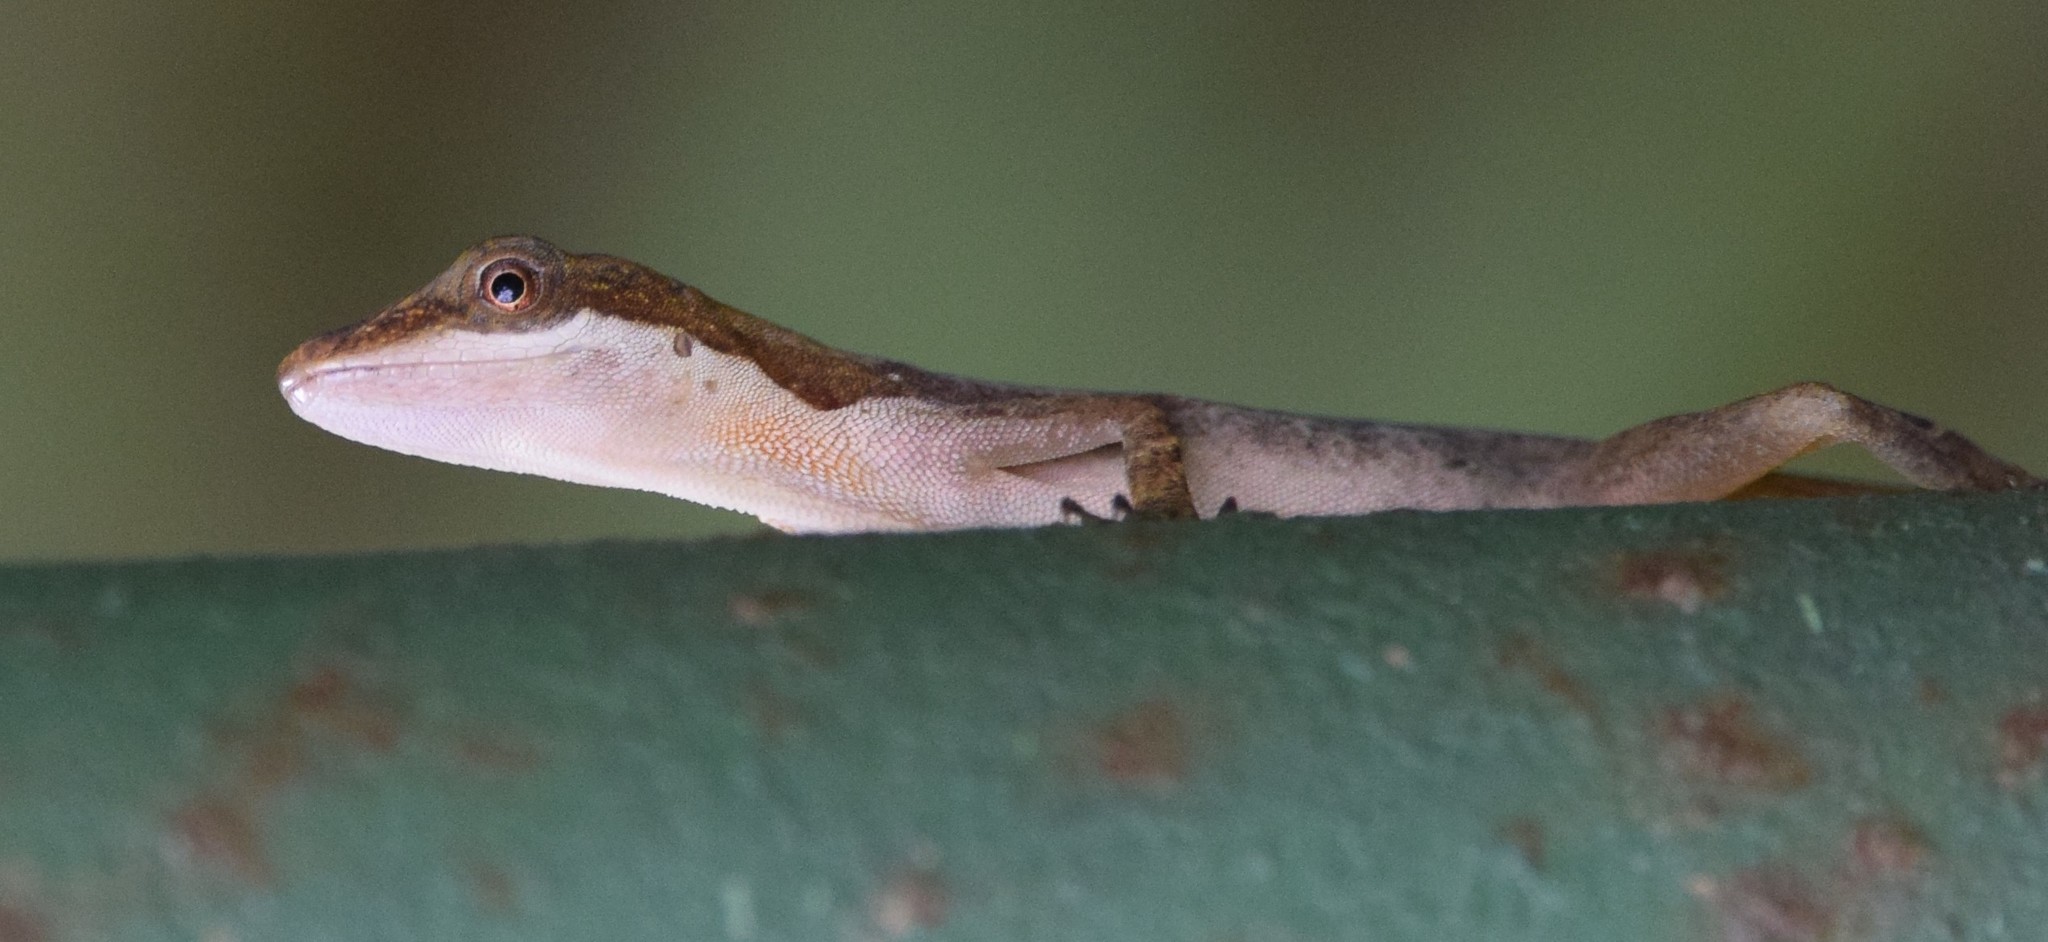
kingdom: Animalia
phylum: Chordata
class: Squamata
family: Dactyloidae
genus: Anolis
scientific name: Anolis limifrons
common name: Border anole
